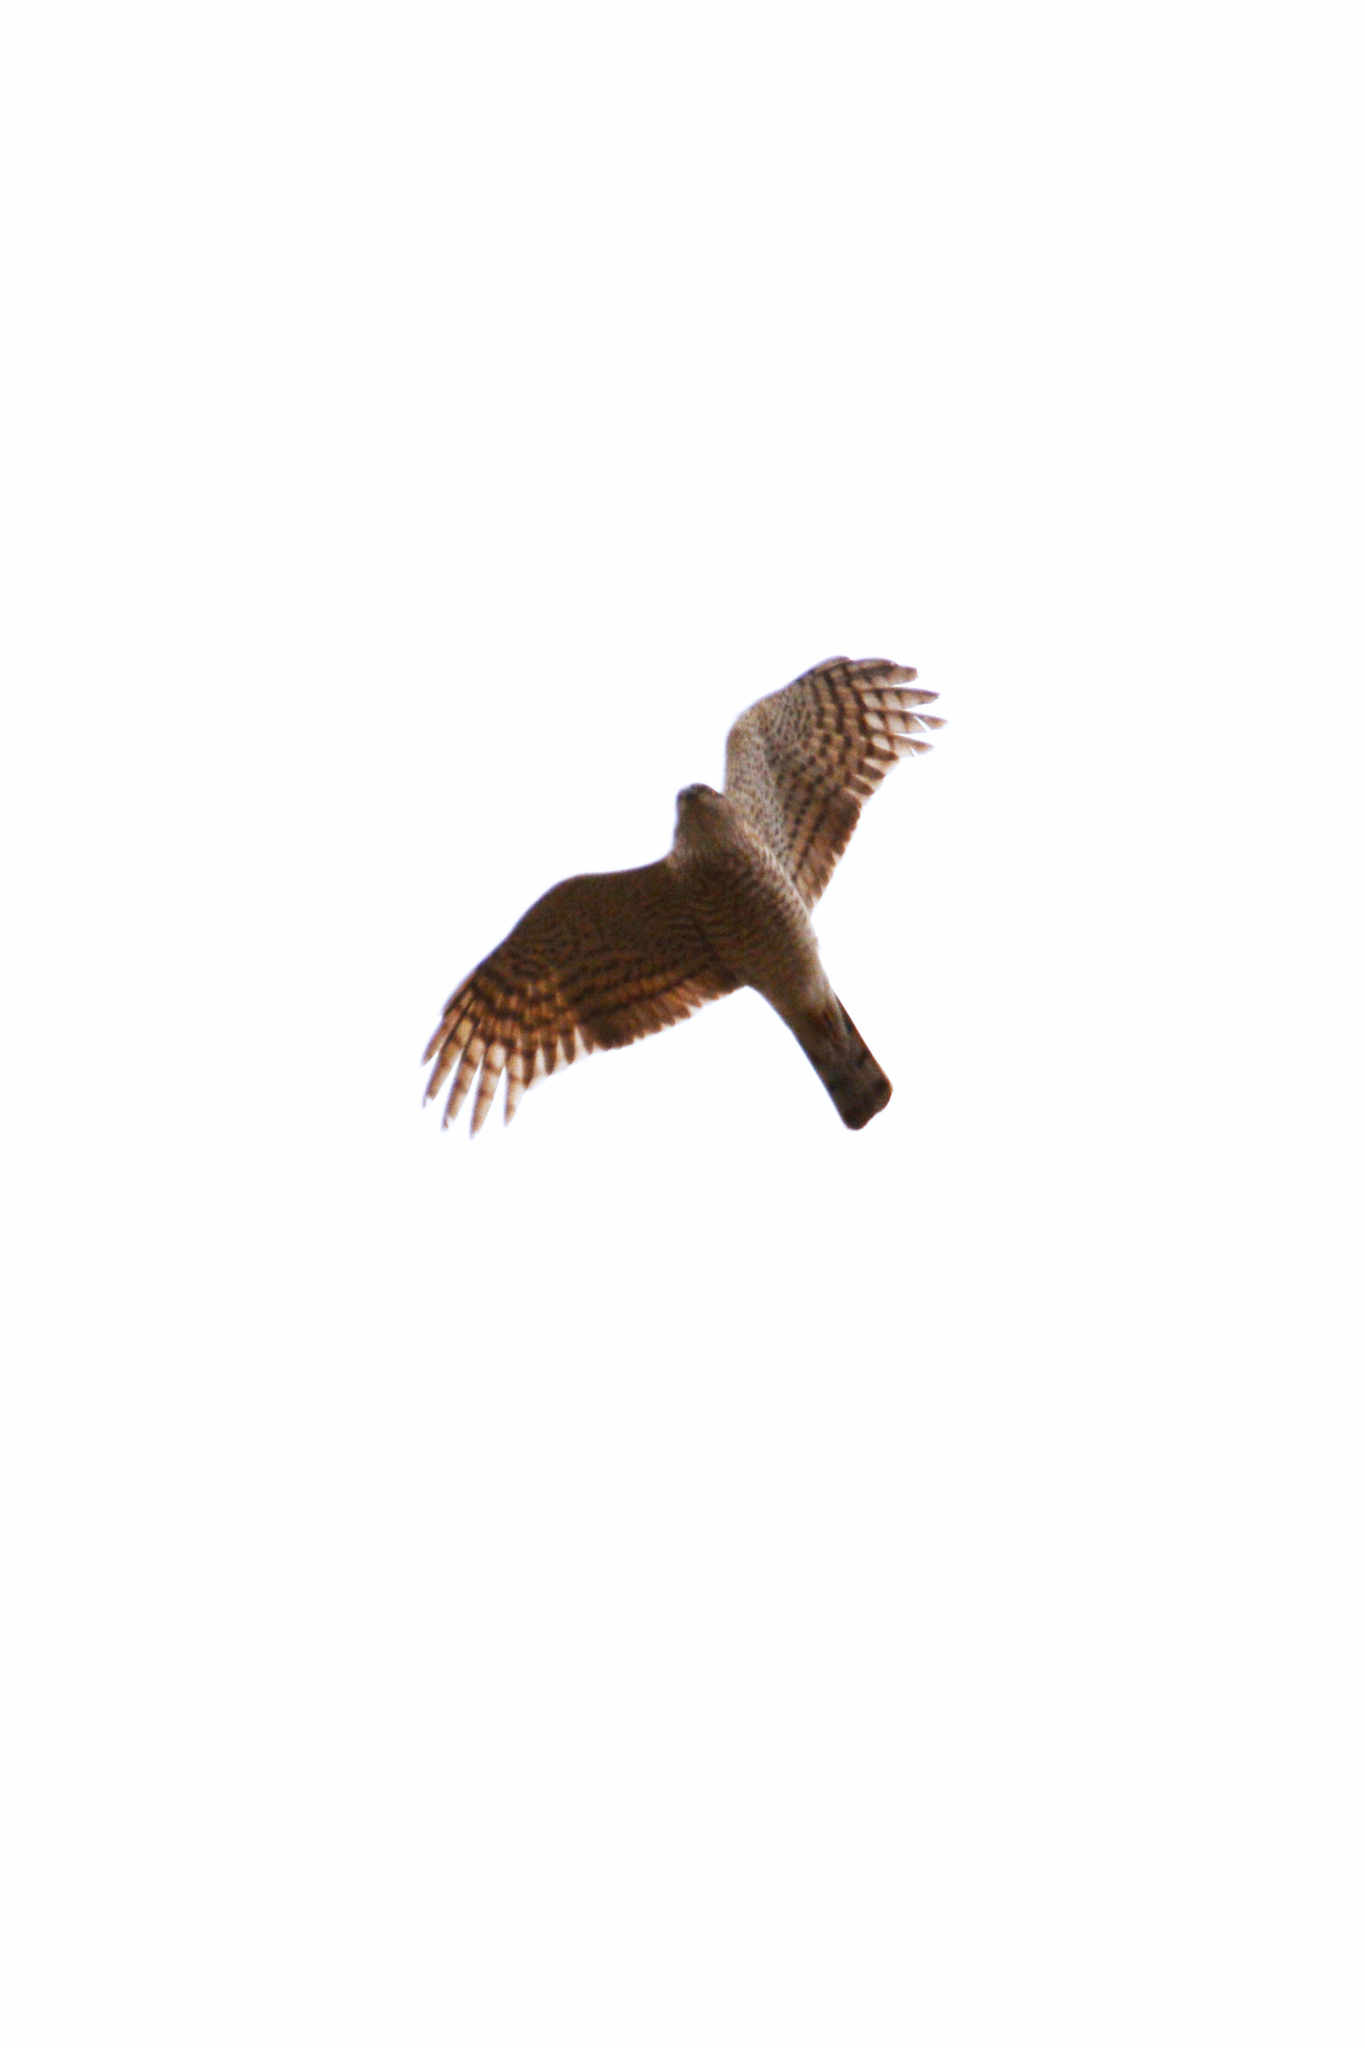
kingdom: Animalia
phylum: Chordata
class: Aves
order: Accipitriformes
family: Accipitridae
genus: Accipiter
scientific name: Accipiter nisus
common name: Eurasian sparrowhawk
